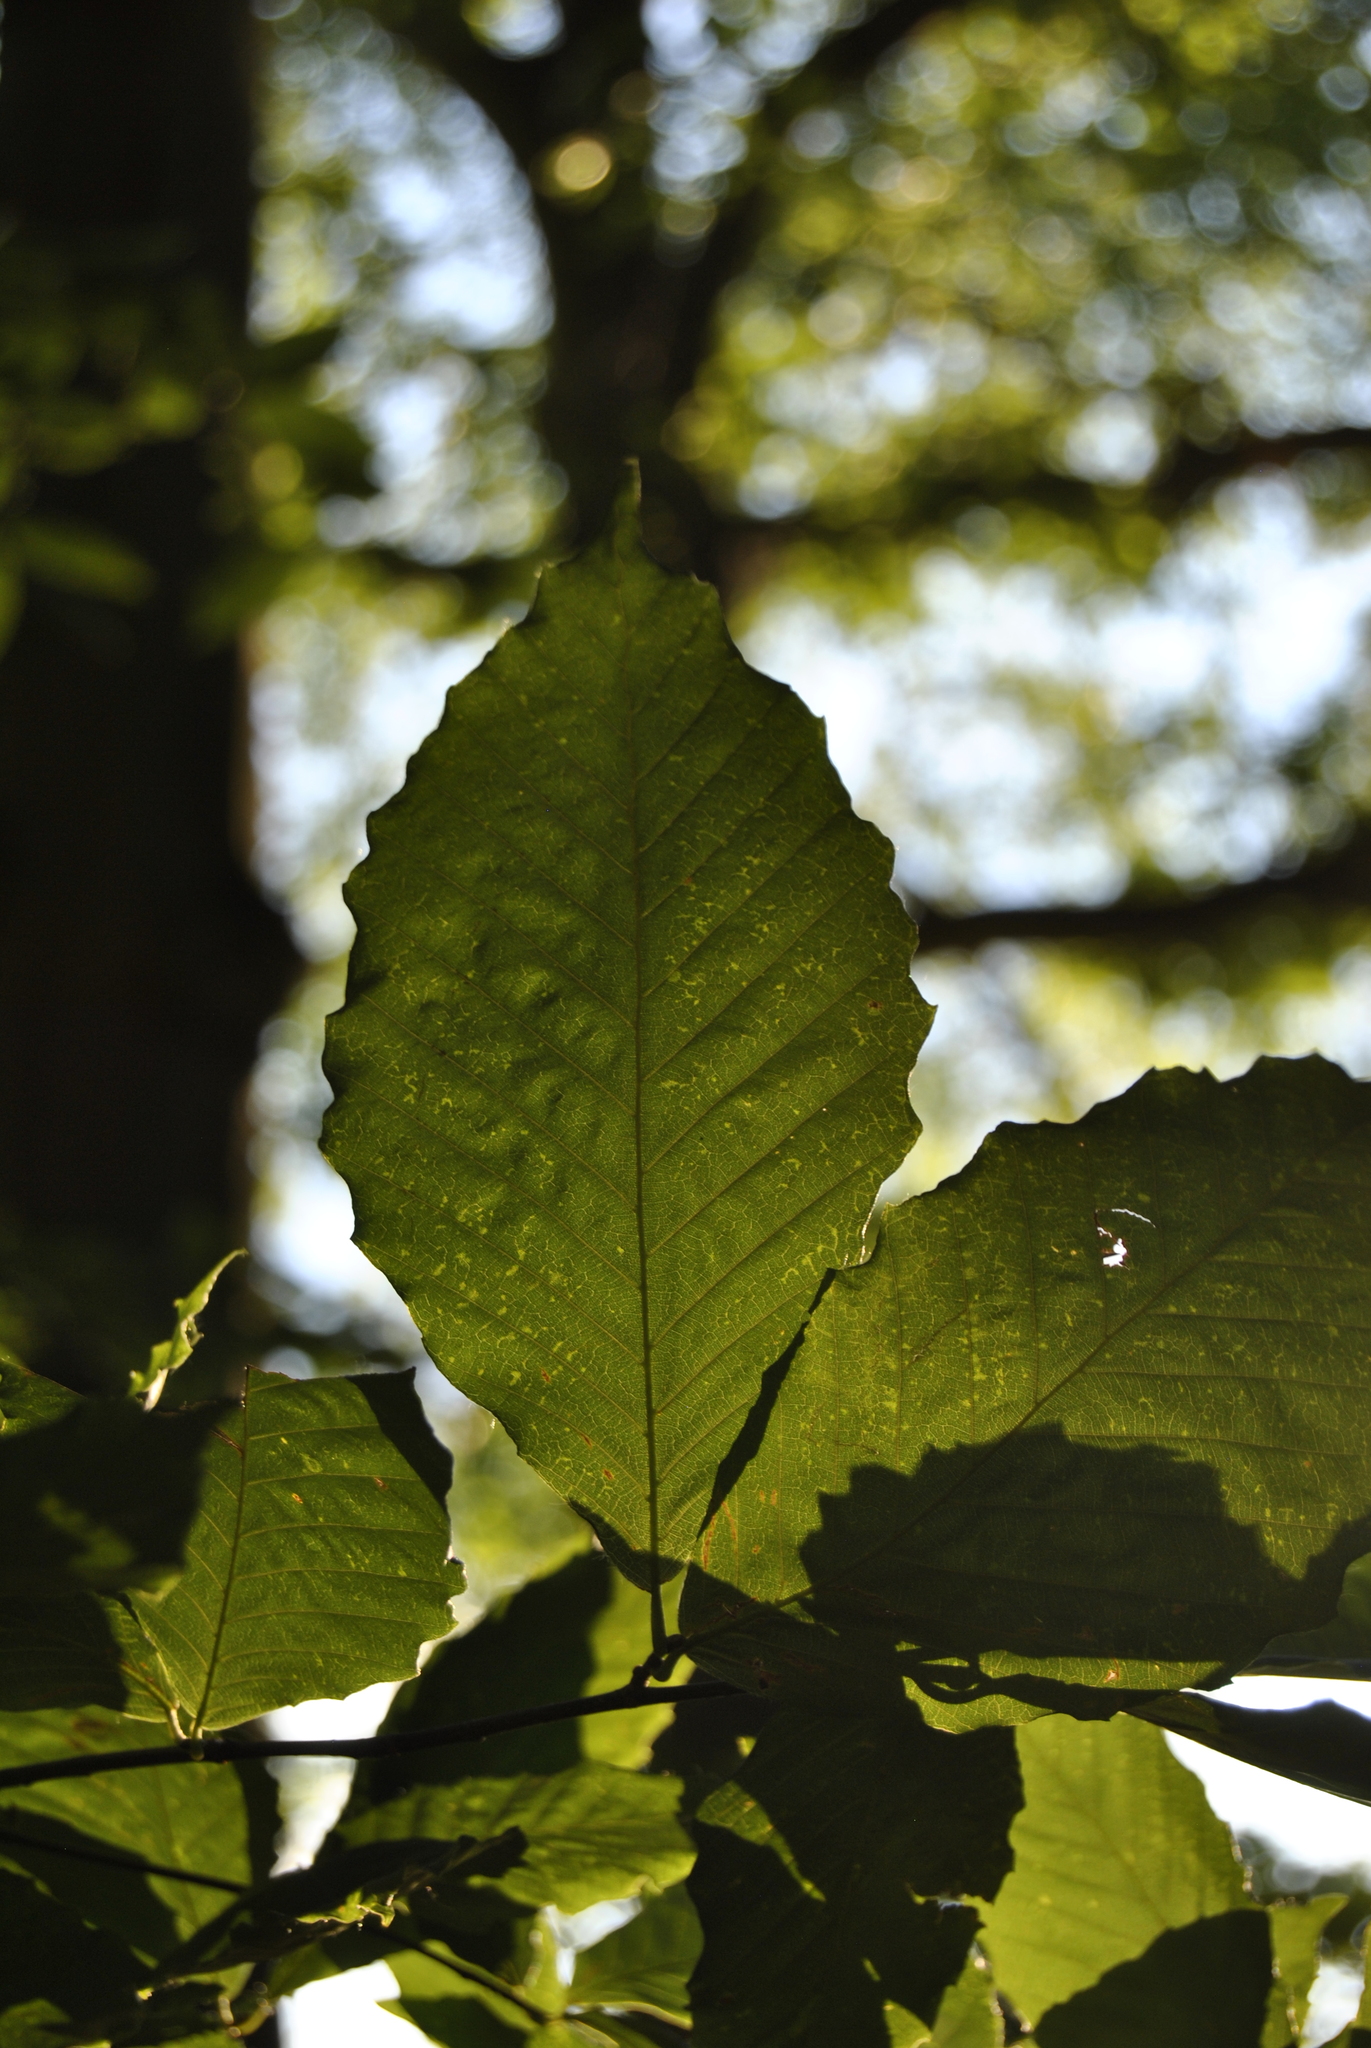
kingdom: Plantae
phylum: Tracheophyta
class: Magnoliopsida
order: Fagales
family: Fagaceae
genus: Fagus
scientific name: Fagus grandifolia
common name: American beech
